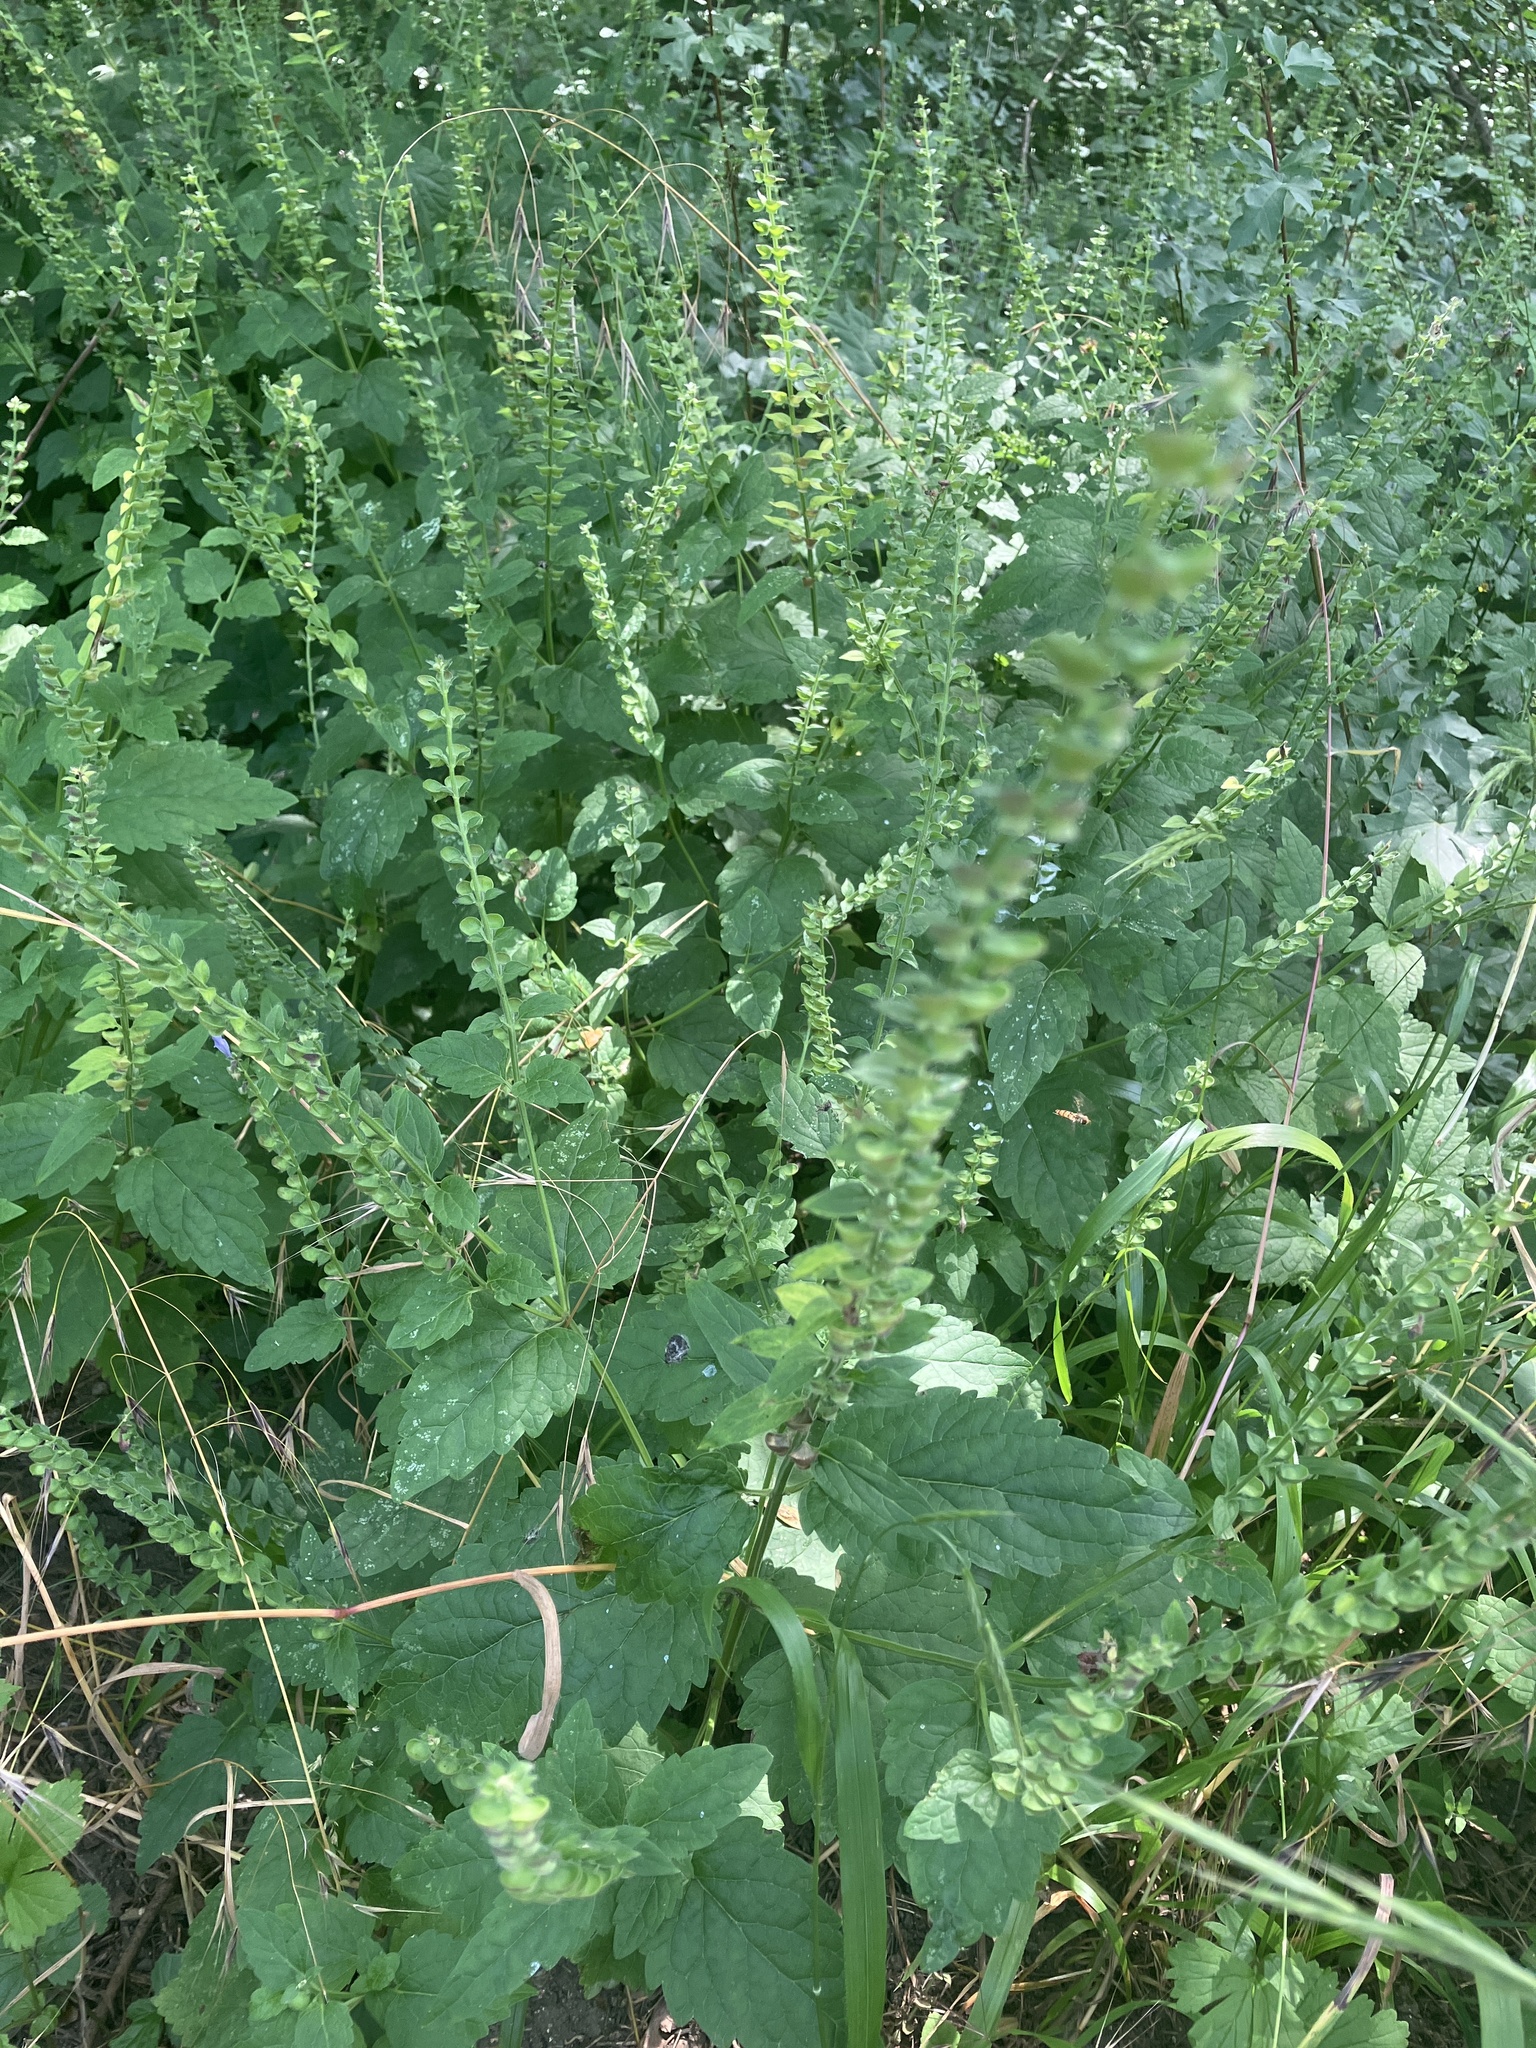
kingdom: Plantae
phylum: Tracheophyta
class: Magnoliopsida
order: Lamiales
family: Lamiaceae
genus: Scutellaria
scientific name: Scutellaria altissima
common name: Somerset skullcap
